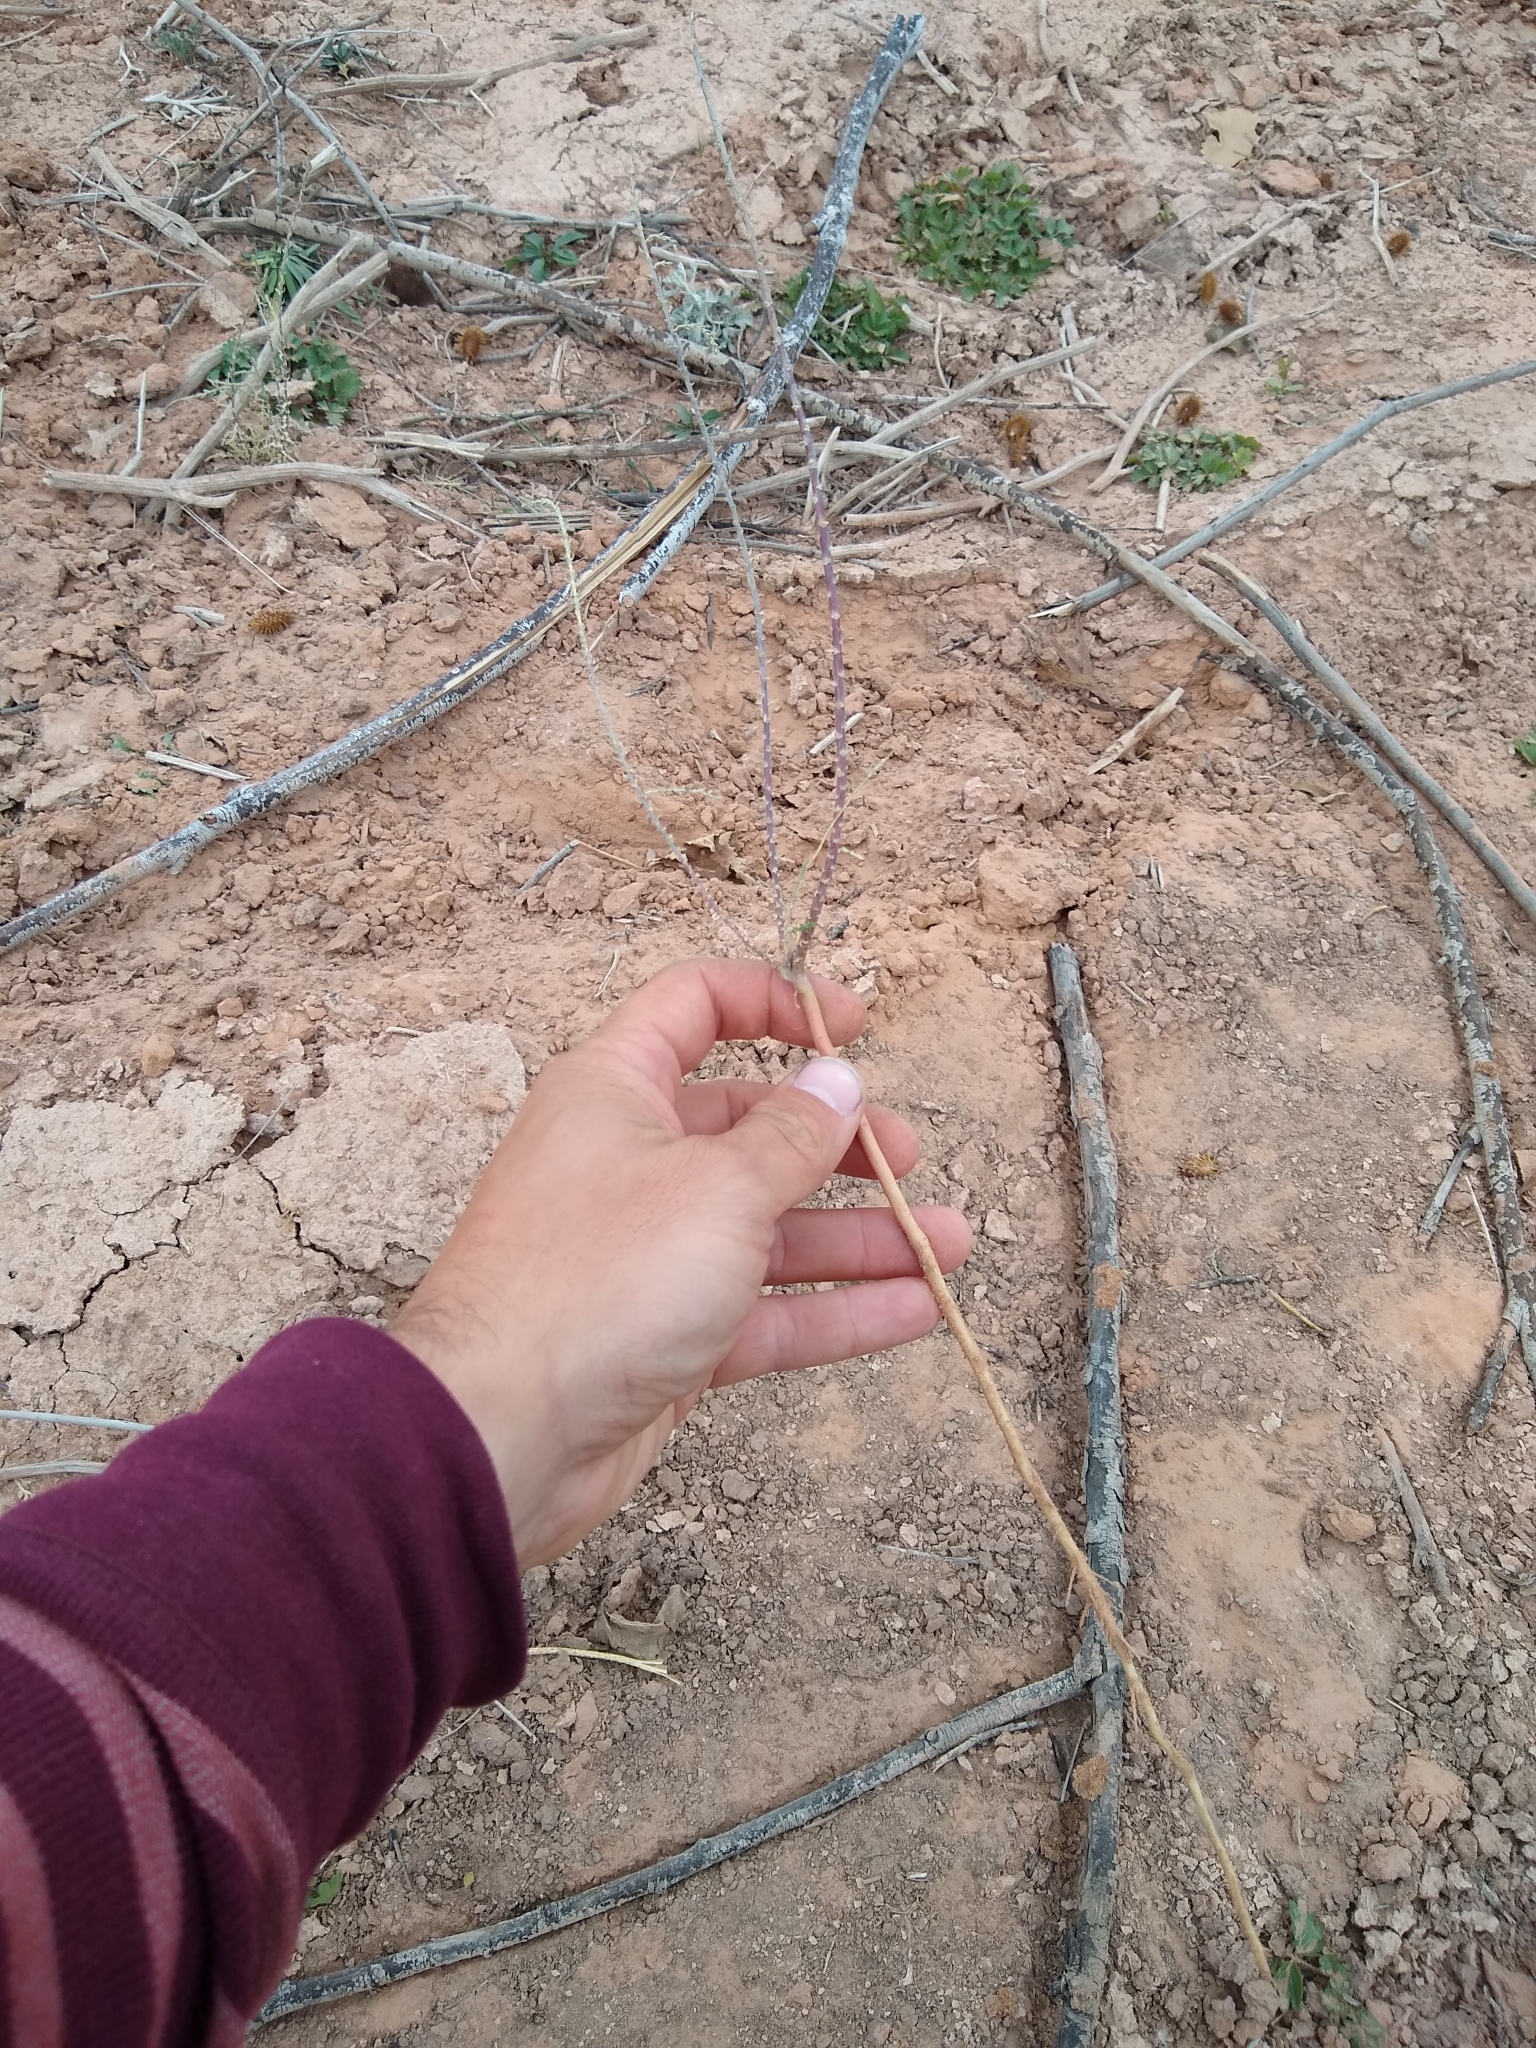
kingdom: Plantae
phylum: Tracheophyta
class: Magnoliopsida
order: Caryophyllales
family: Tamaricaceae
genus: Tamarix
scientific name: Tamarix ramosissima
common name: Pink tamarisk
